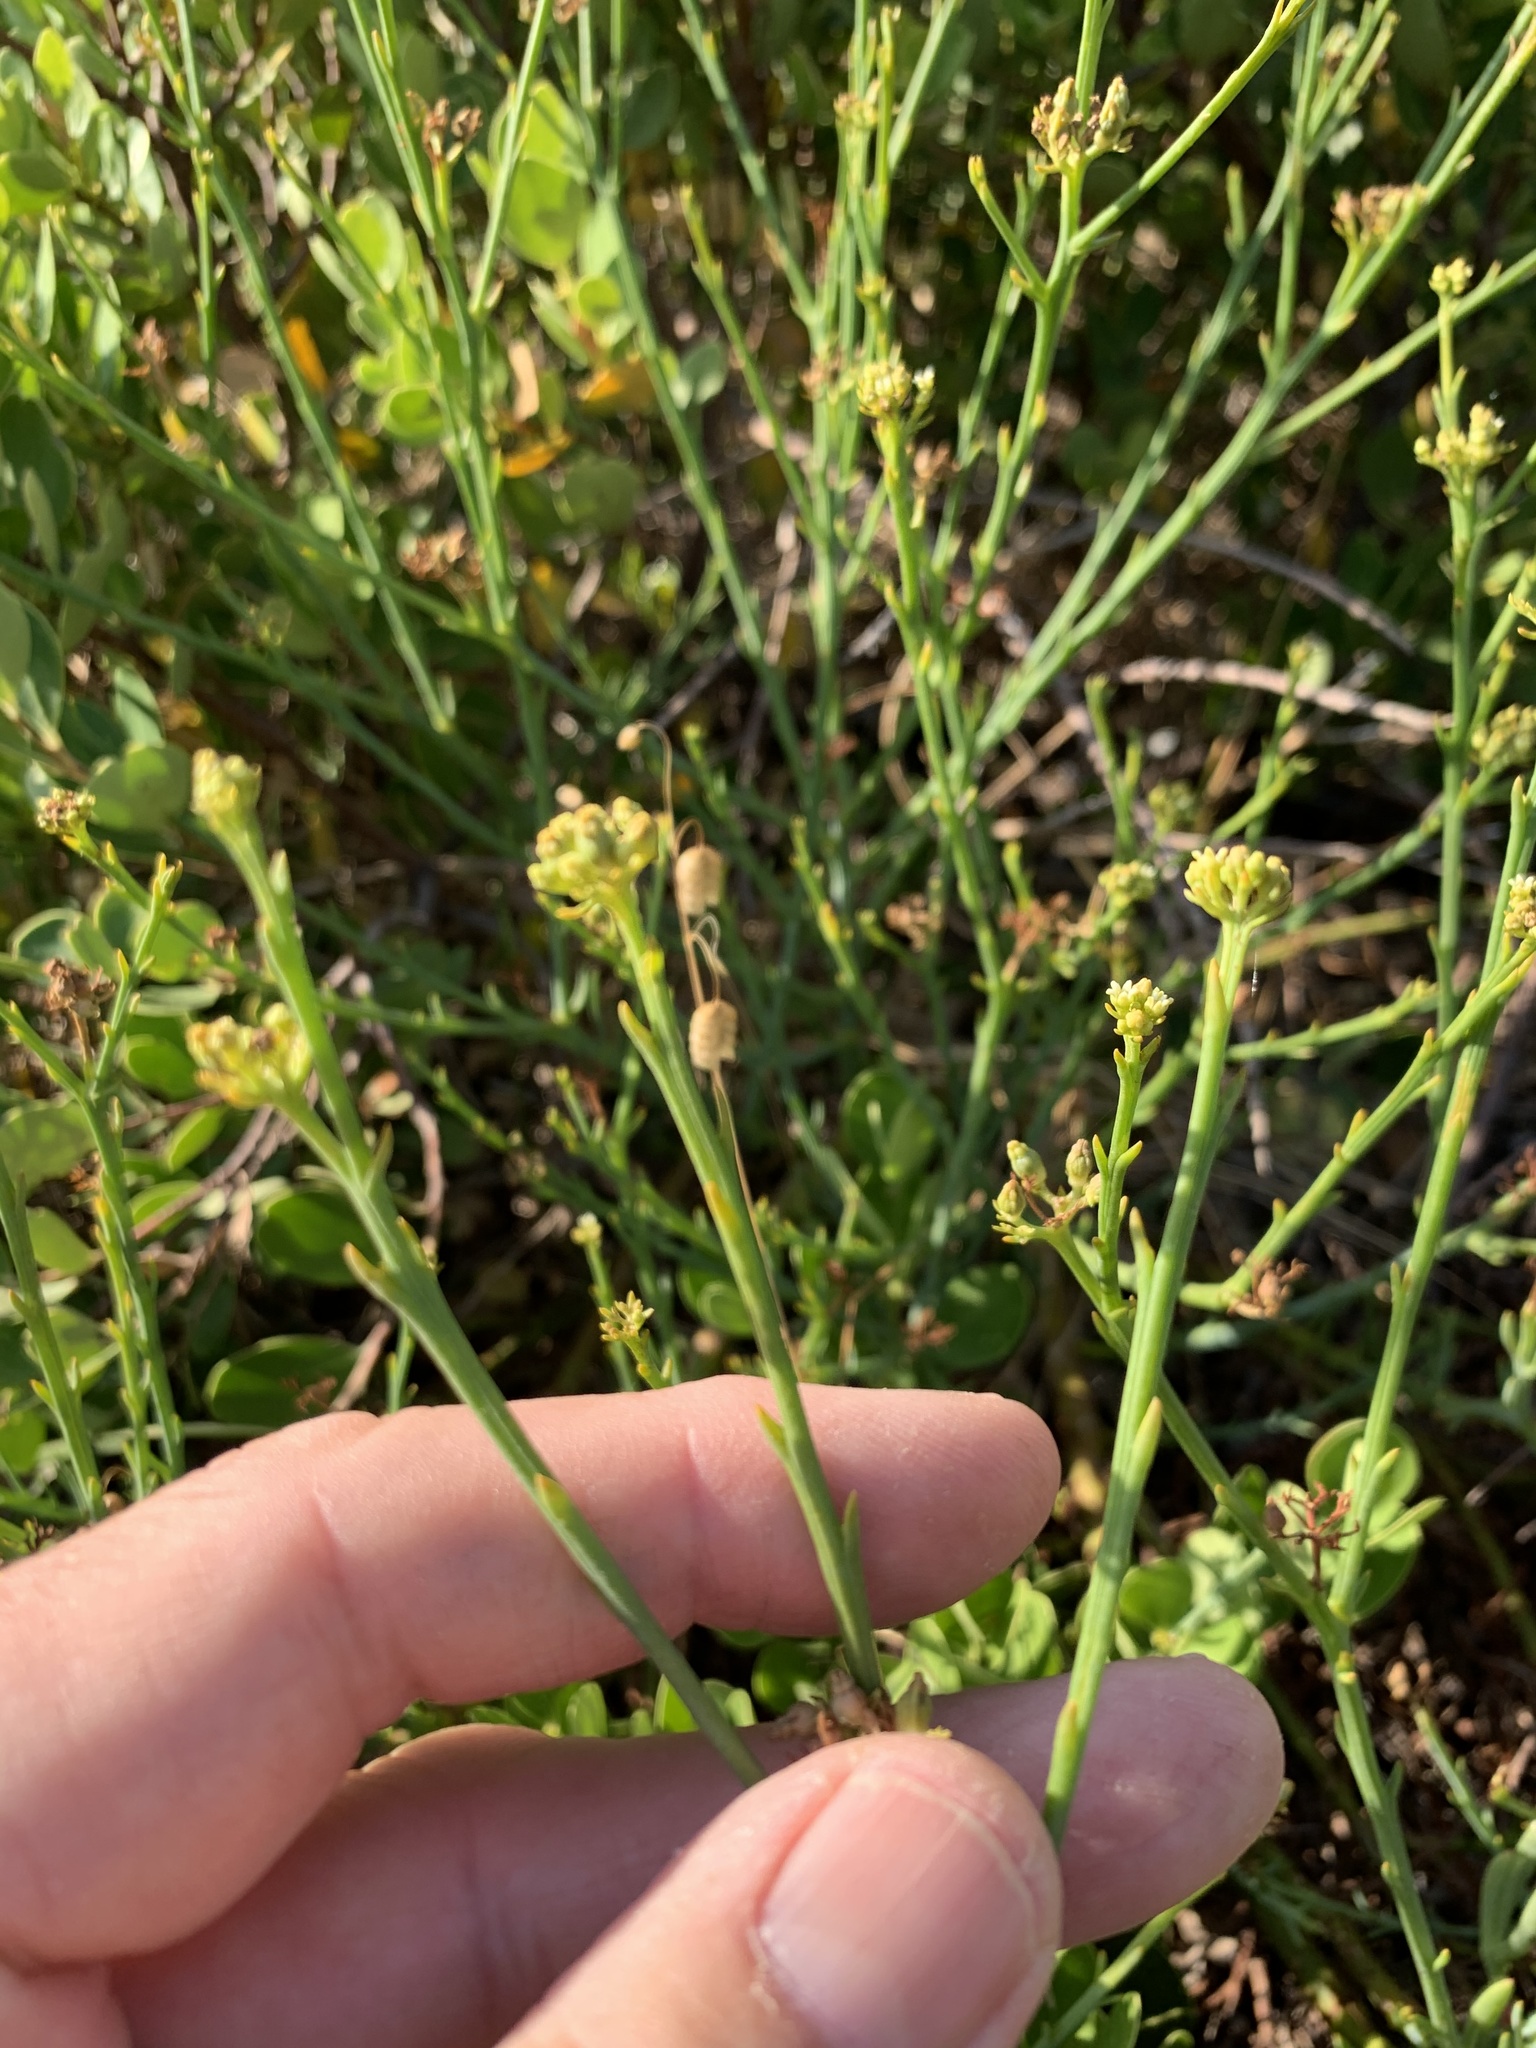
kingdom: Plantae
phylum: Tracheophyta
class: Magnoliopsida
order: Santalales
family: Thesiaceae
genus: Thesium
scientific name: Thesium strictum
